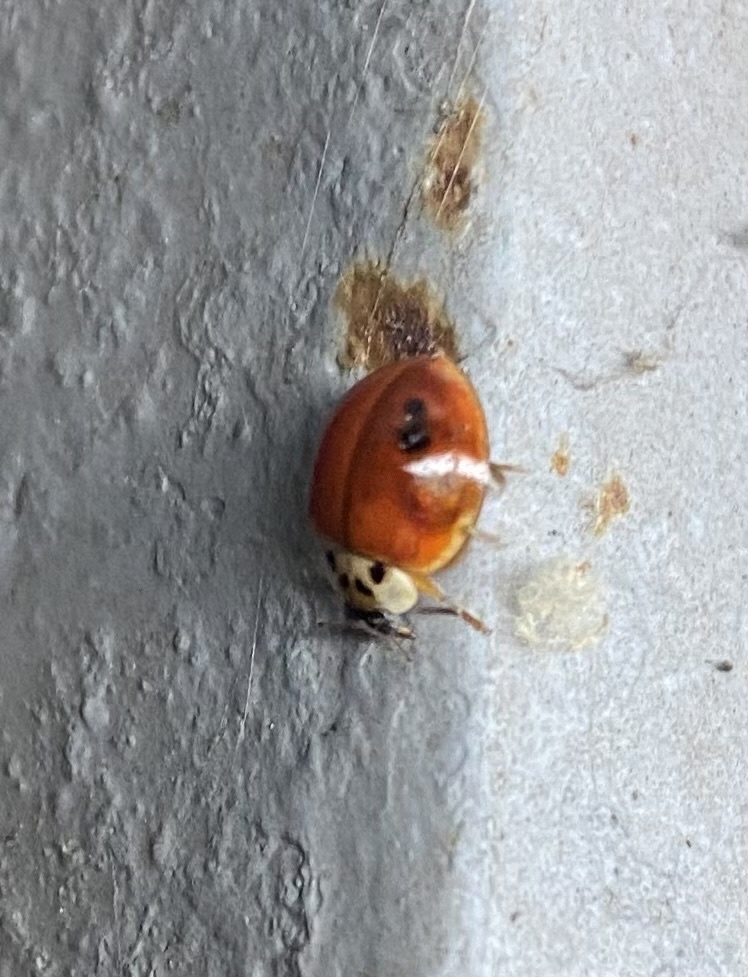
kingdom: Animalia
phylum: Arthropoda
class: Insecta
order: Coleoptera
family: Coccinellidae
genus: Harmonia
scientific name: Harmonia axyridis
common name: Harlequin ladybird
